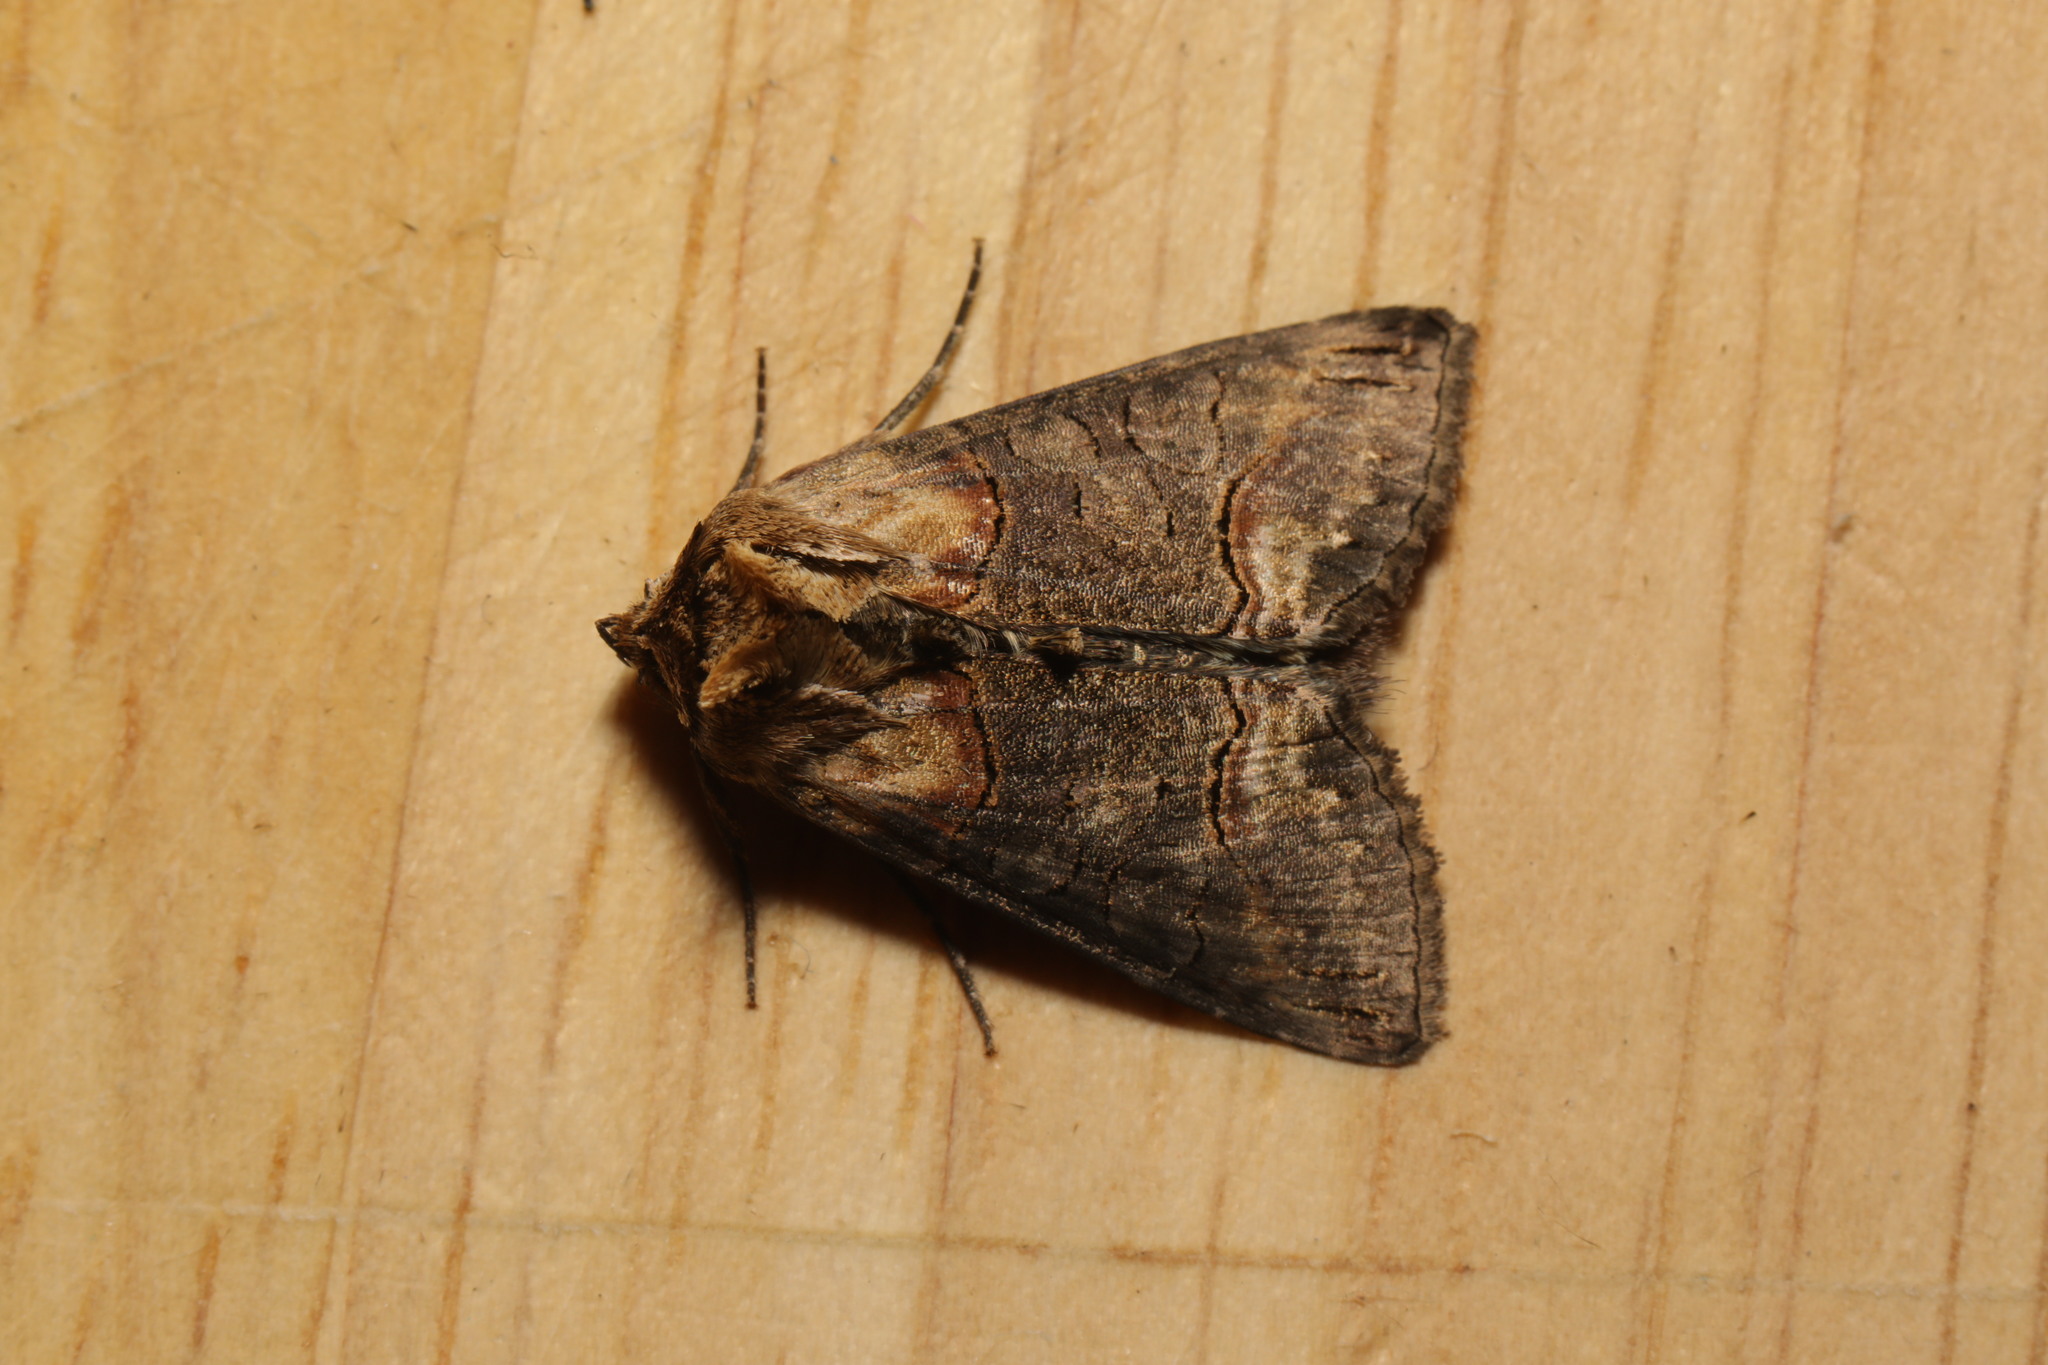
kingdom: Animalia
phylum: Arthropoda
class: Insecta
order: Lepidoptera
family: Noctuidae
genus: Abrostola
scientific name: Abrostola triplasia
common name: Dark spectacle
